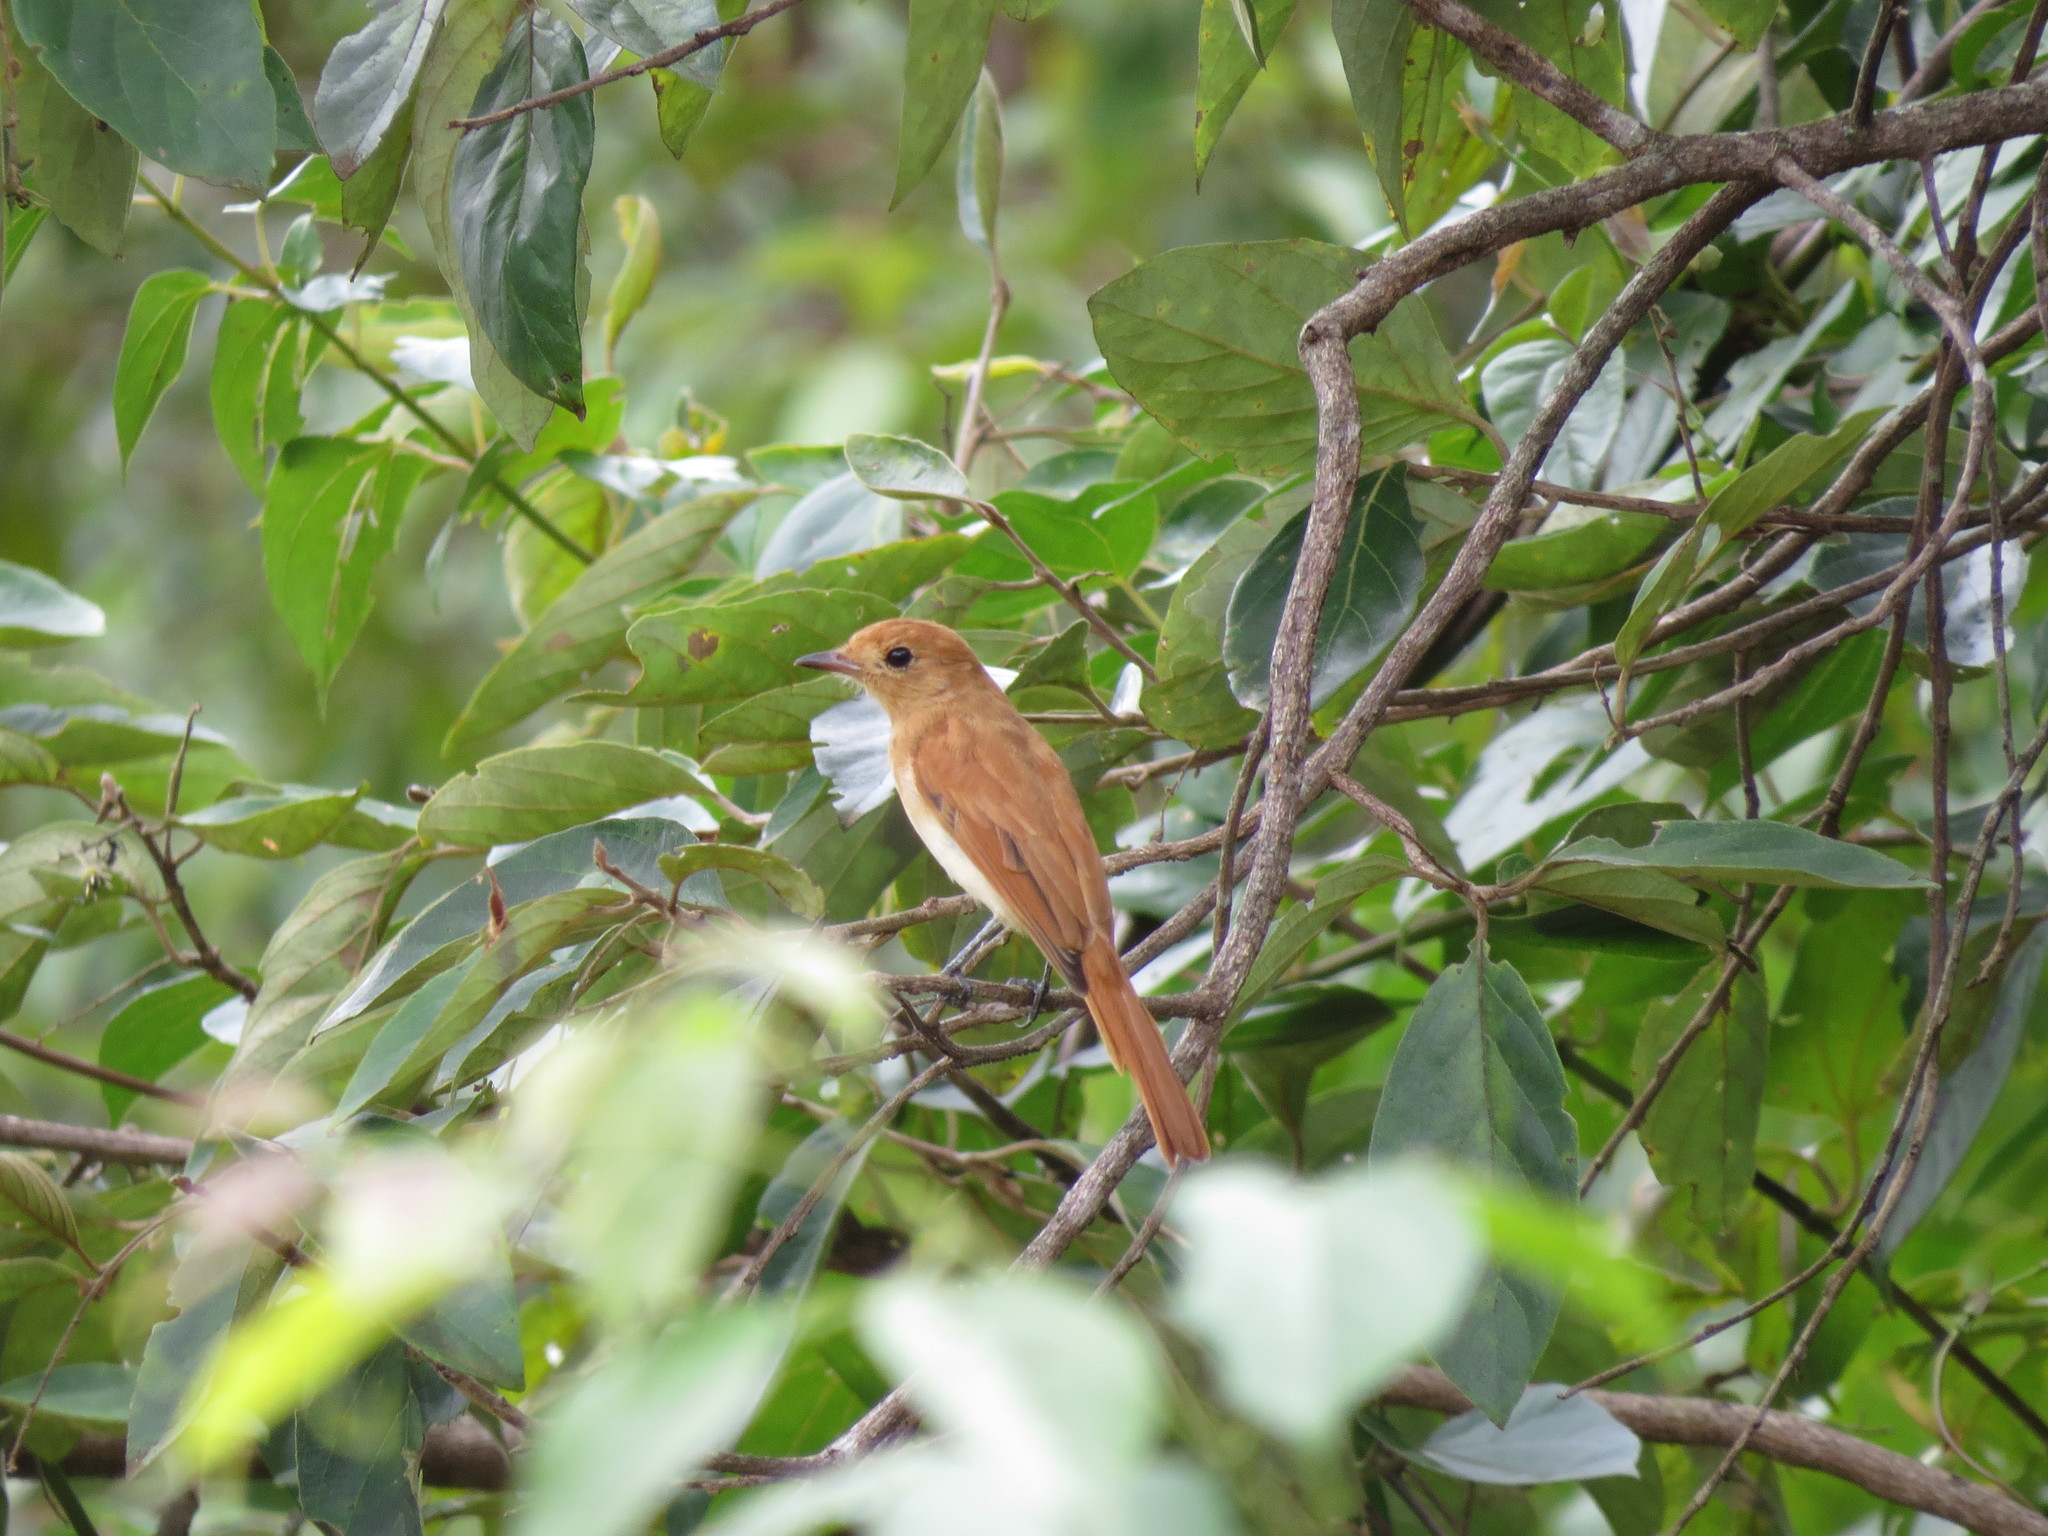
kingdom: Animalia
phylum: Chordata
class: Aves
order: Passeriformes
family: Tyrannidae
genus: Casiornis
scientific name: Casiornis rufus
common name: Rufous casiornis
